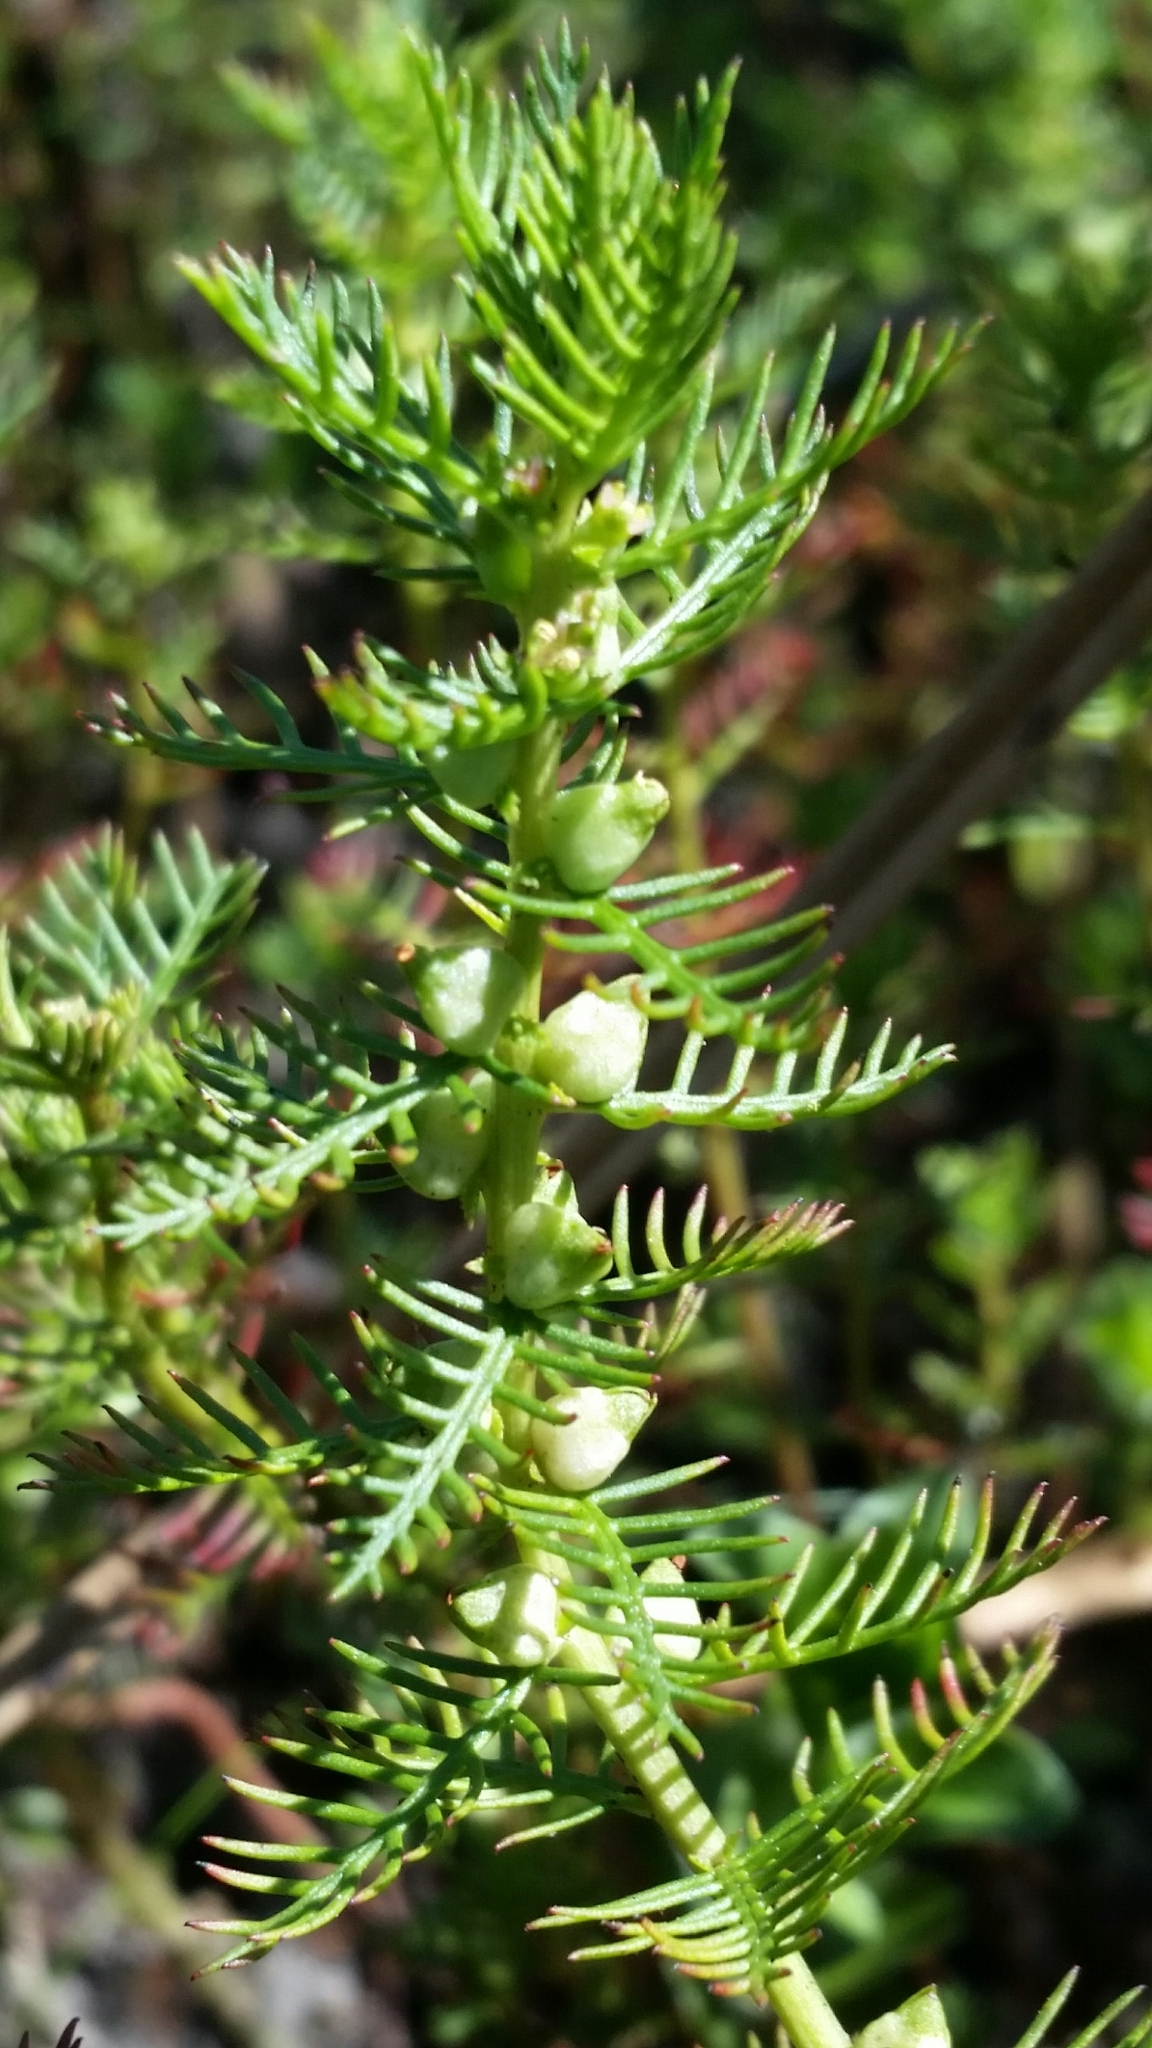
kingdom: Plantae
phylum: Tracheophyta
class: Magnoliopsida
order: Saxifragales
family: Haloragaceae
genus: Proserpinaca
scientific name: Proserpinaca pectinata
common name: Comb-leaved mermaidweed
